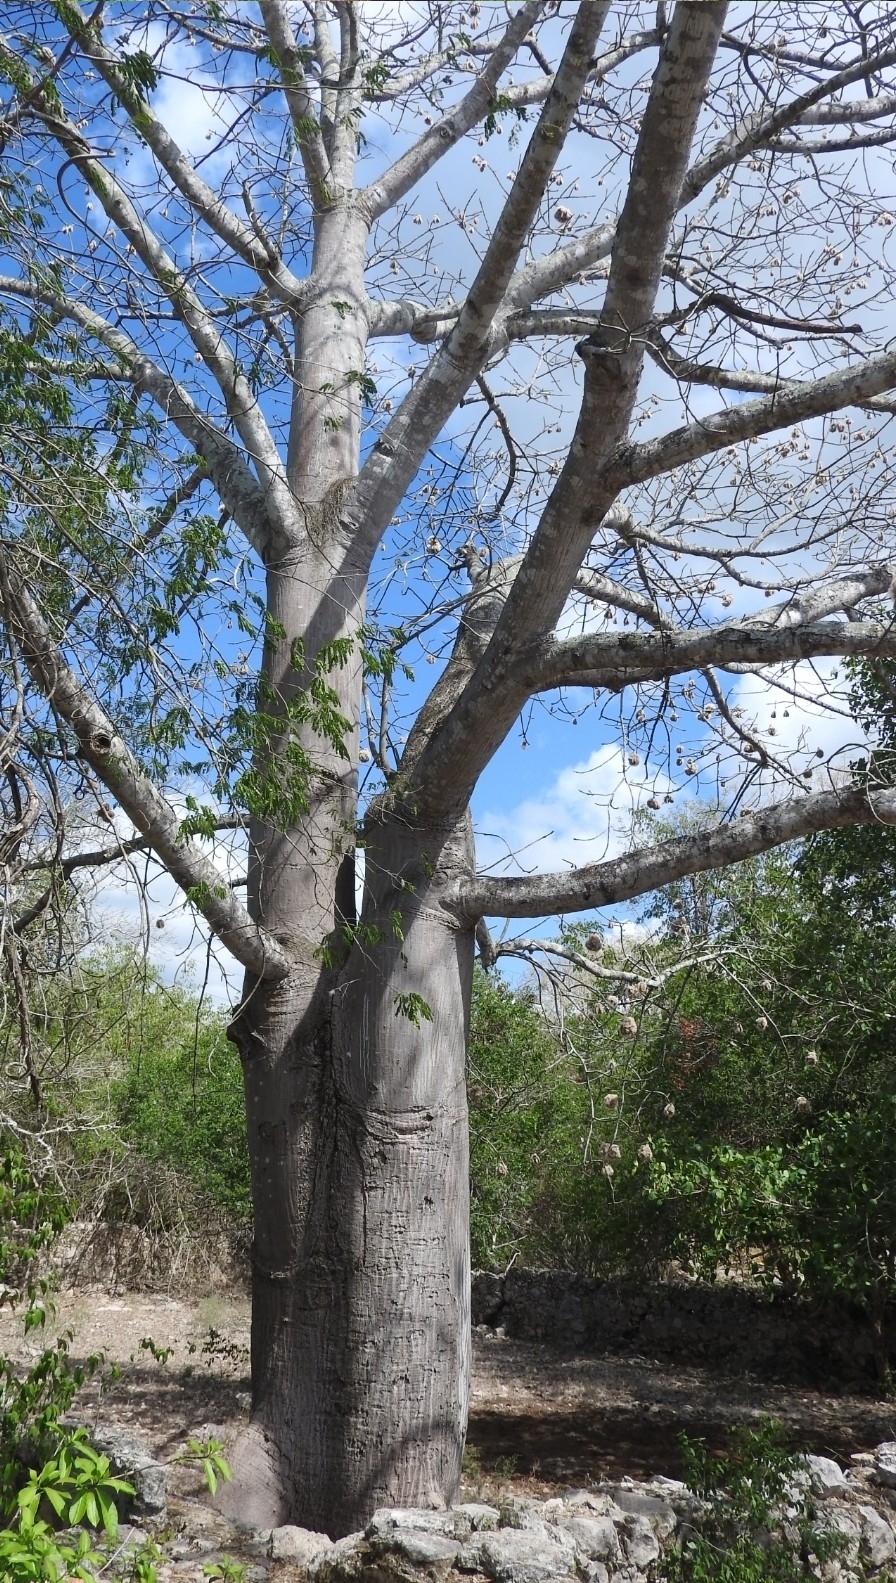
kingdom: Plantae
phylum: Tracheophyta
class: Magnoliopsida
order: Malvales
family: Malvaceae
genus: Ceiba
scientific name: Ceiba pentandra
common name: Kapok
